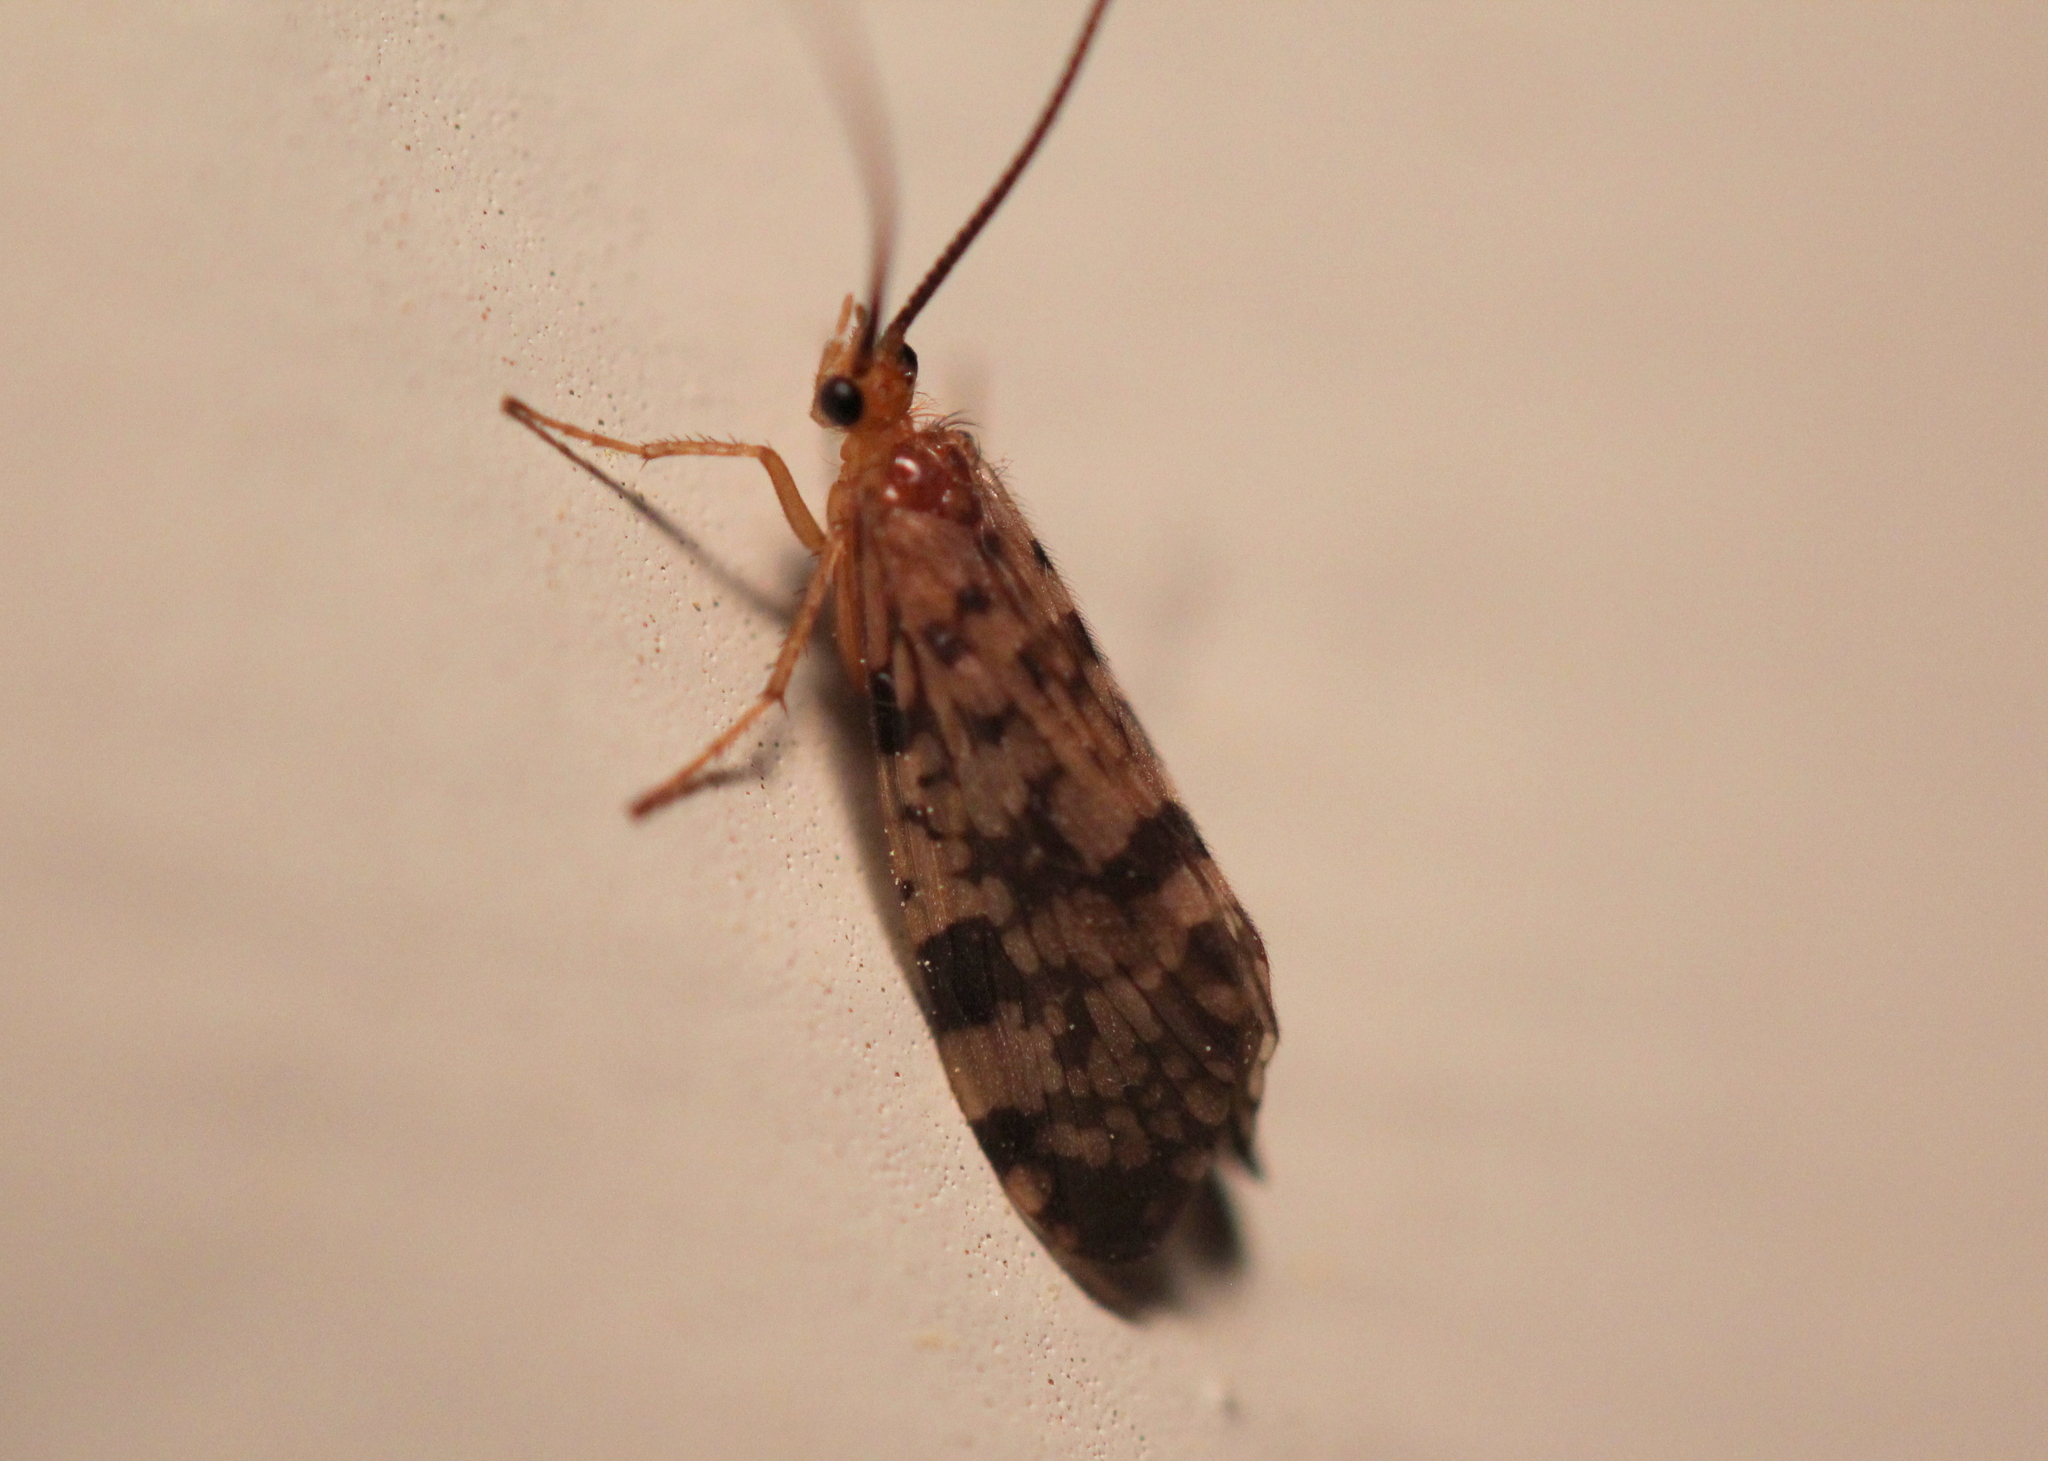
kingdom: Animalia
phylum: Arthropoda
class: Insecta
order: Trichoptera
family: Phryganeidae
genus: Banksiola
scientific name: Banksiola dossuaria
